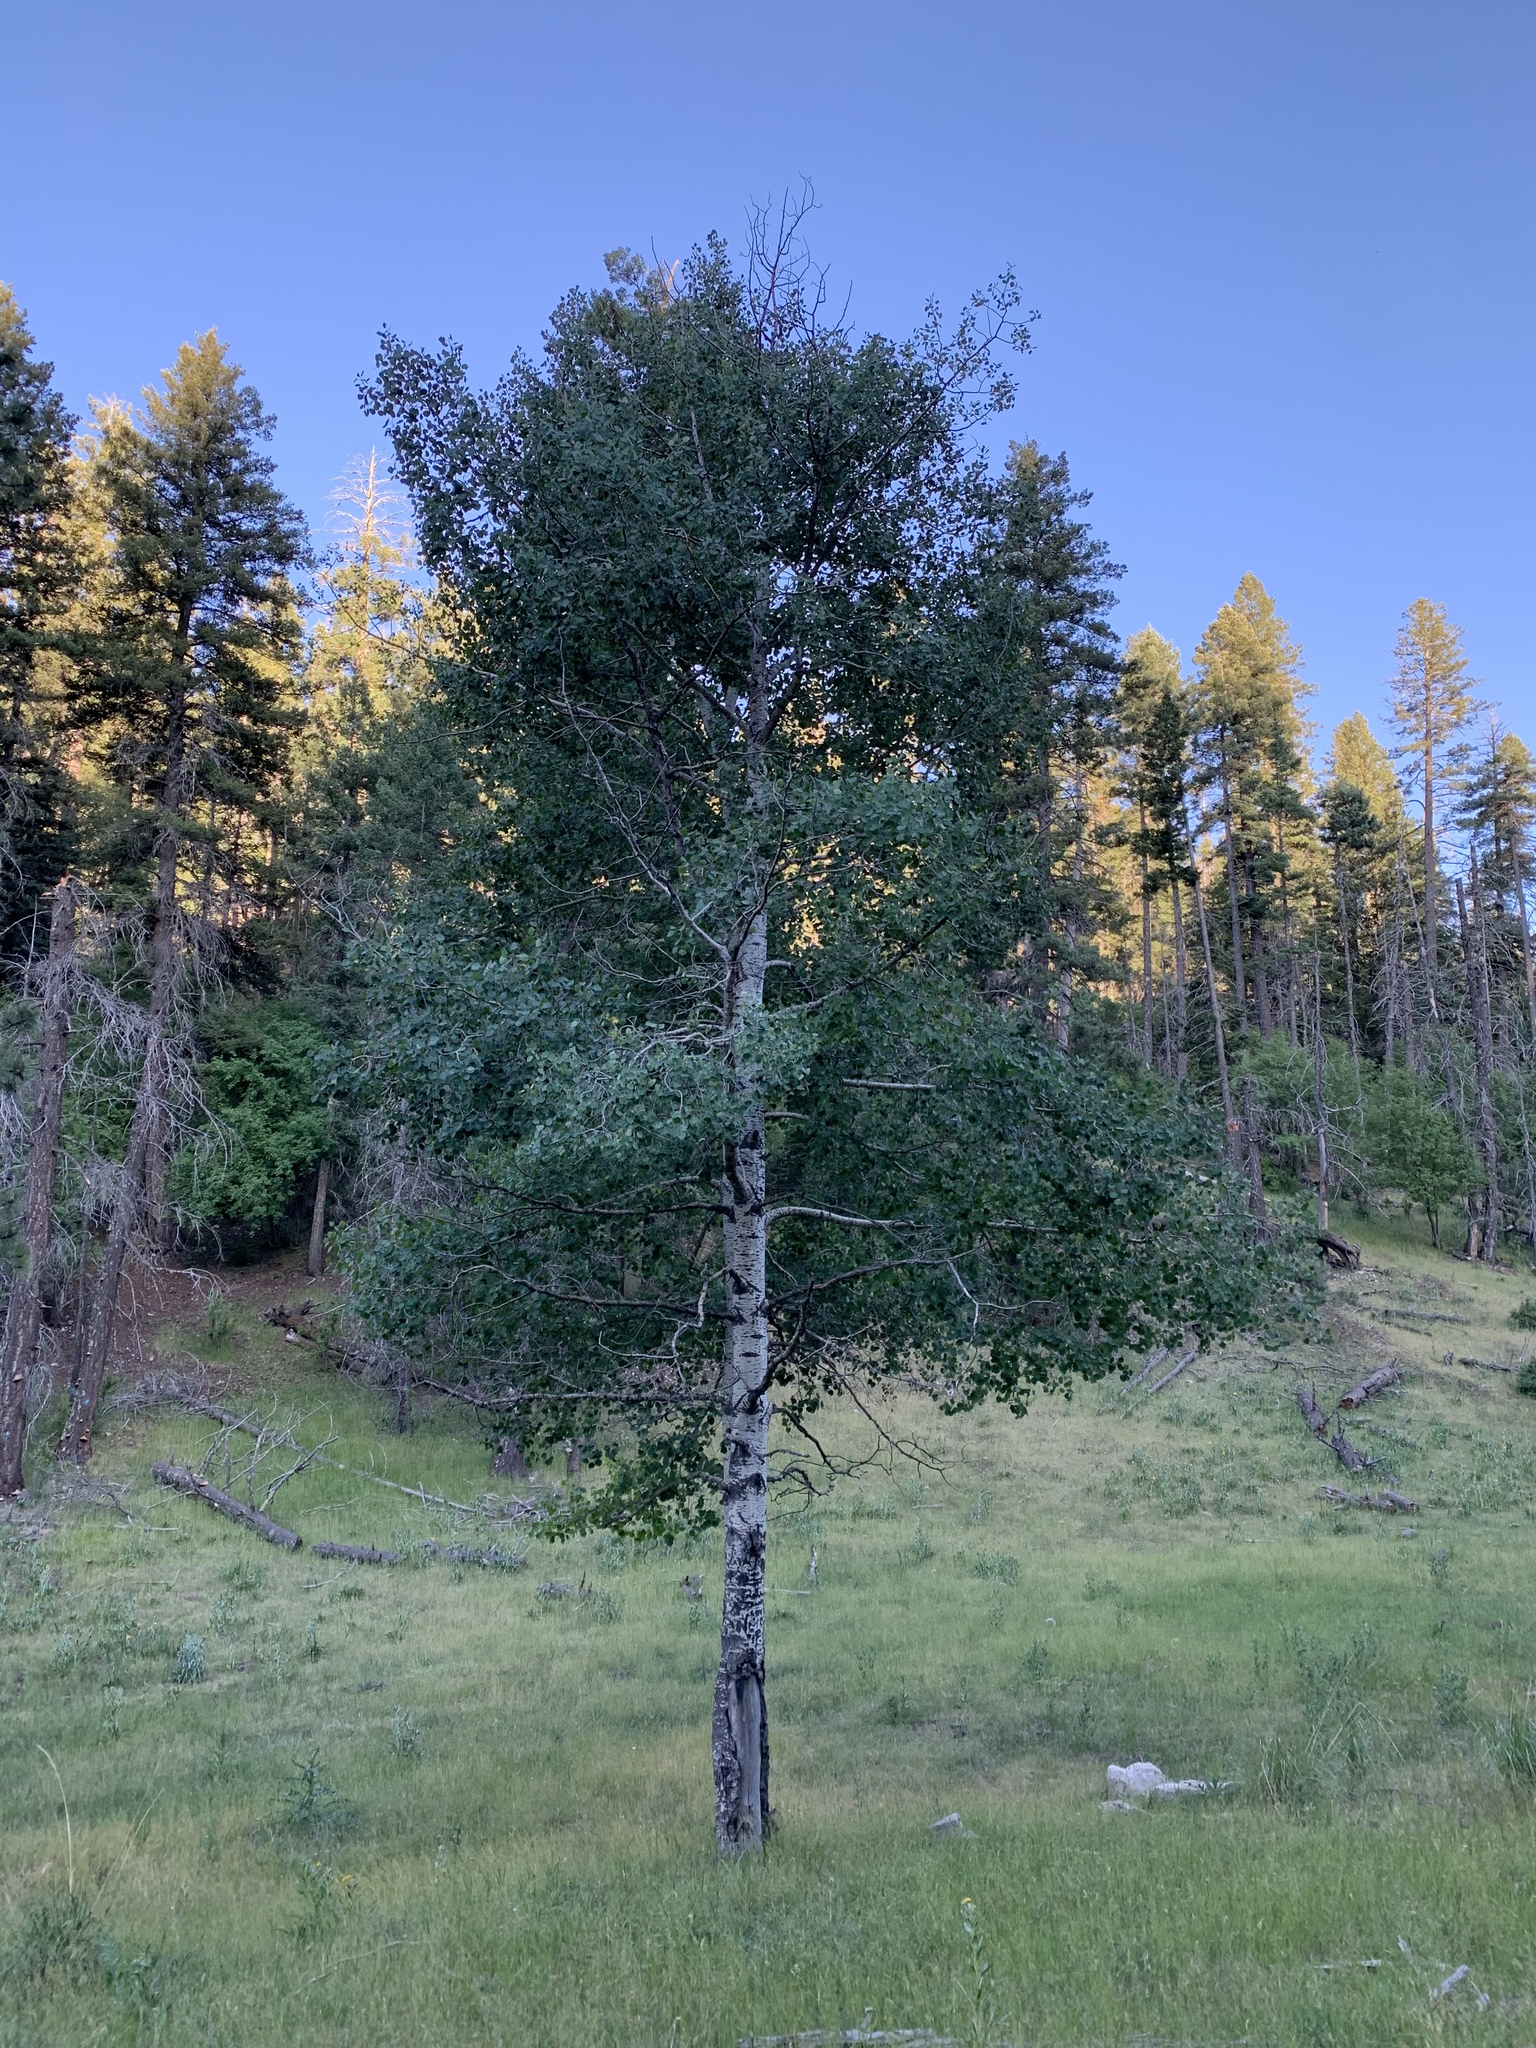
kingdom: Plantae
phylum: Tracheophyta
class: Magnoliopsida
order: Malpighiales
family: Salicaceae
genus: Populus
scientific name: Populus tremuloides
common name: Quaking aspen
